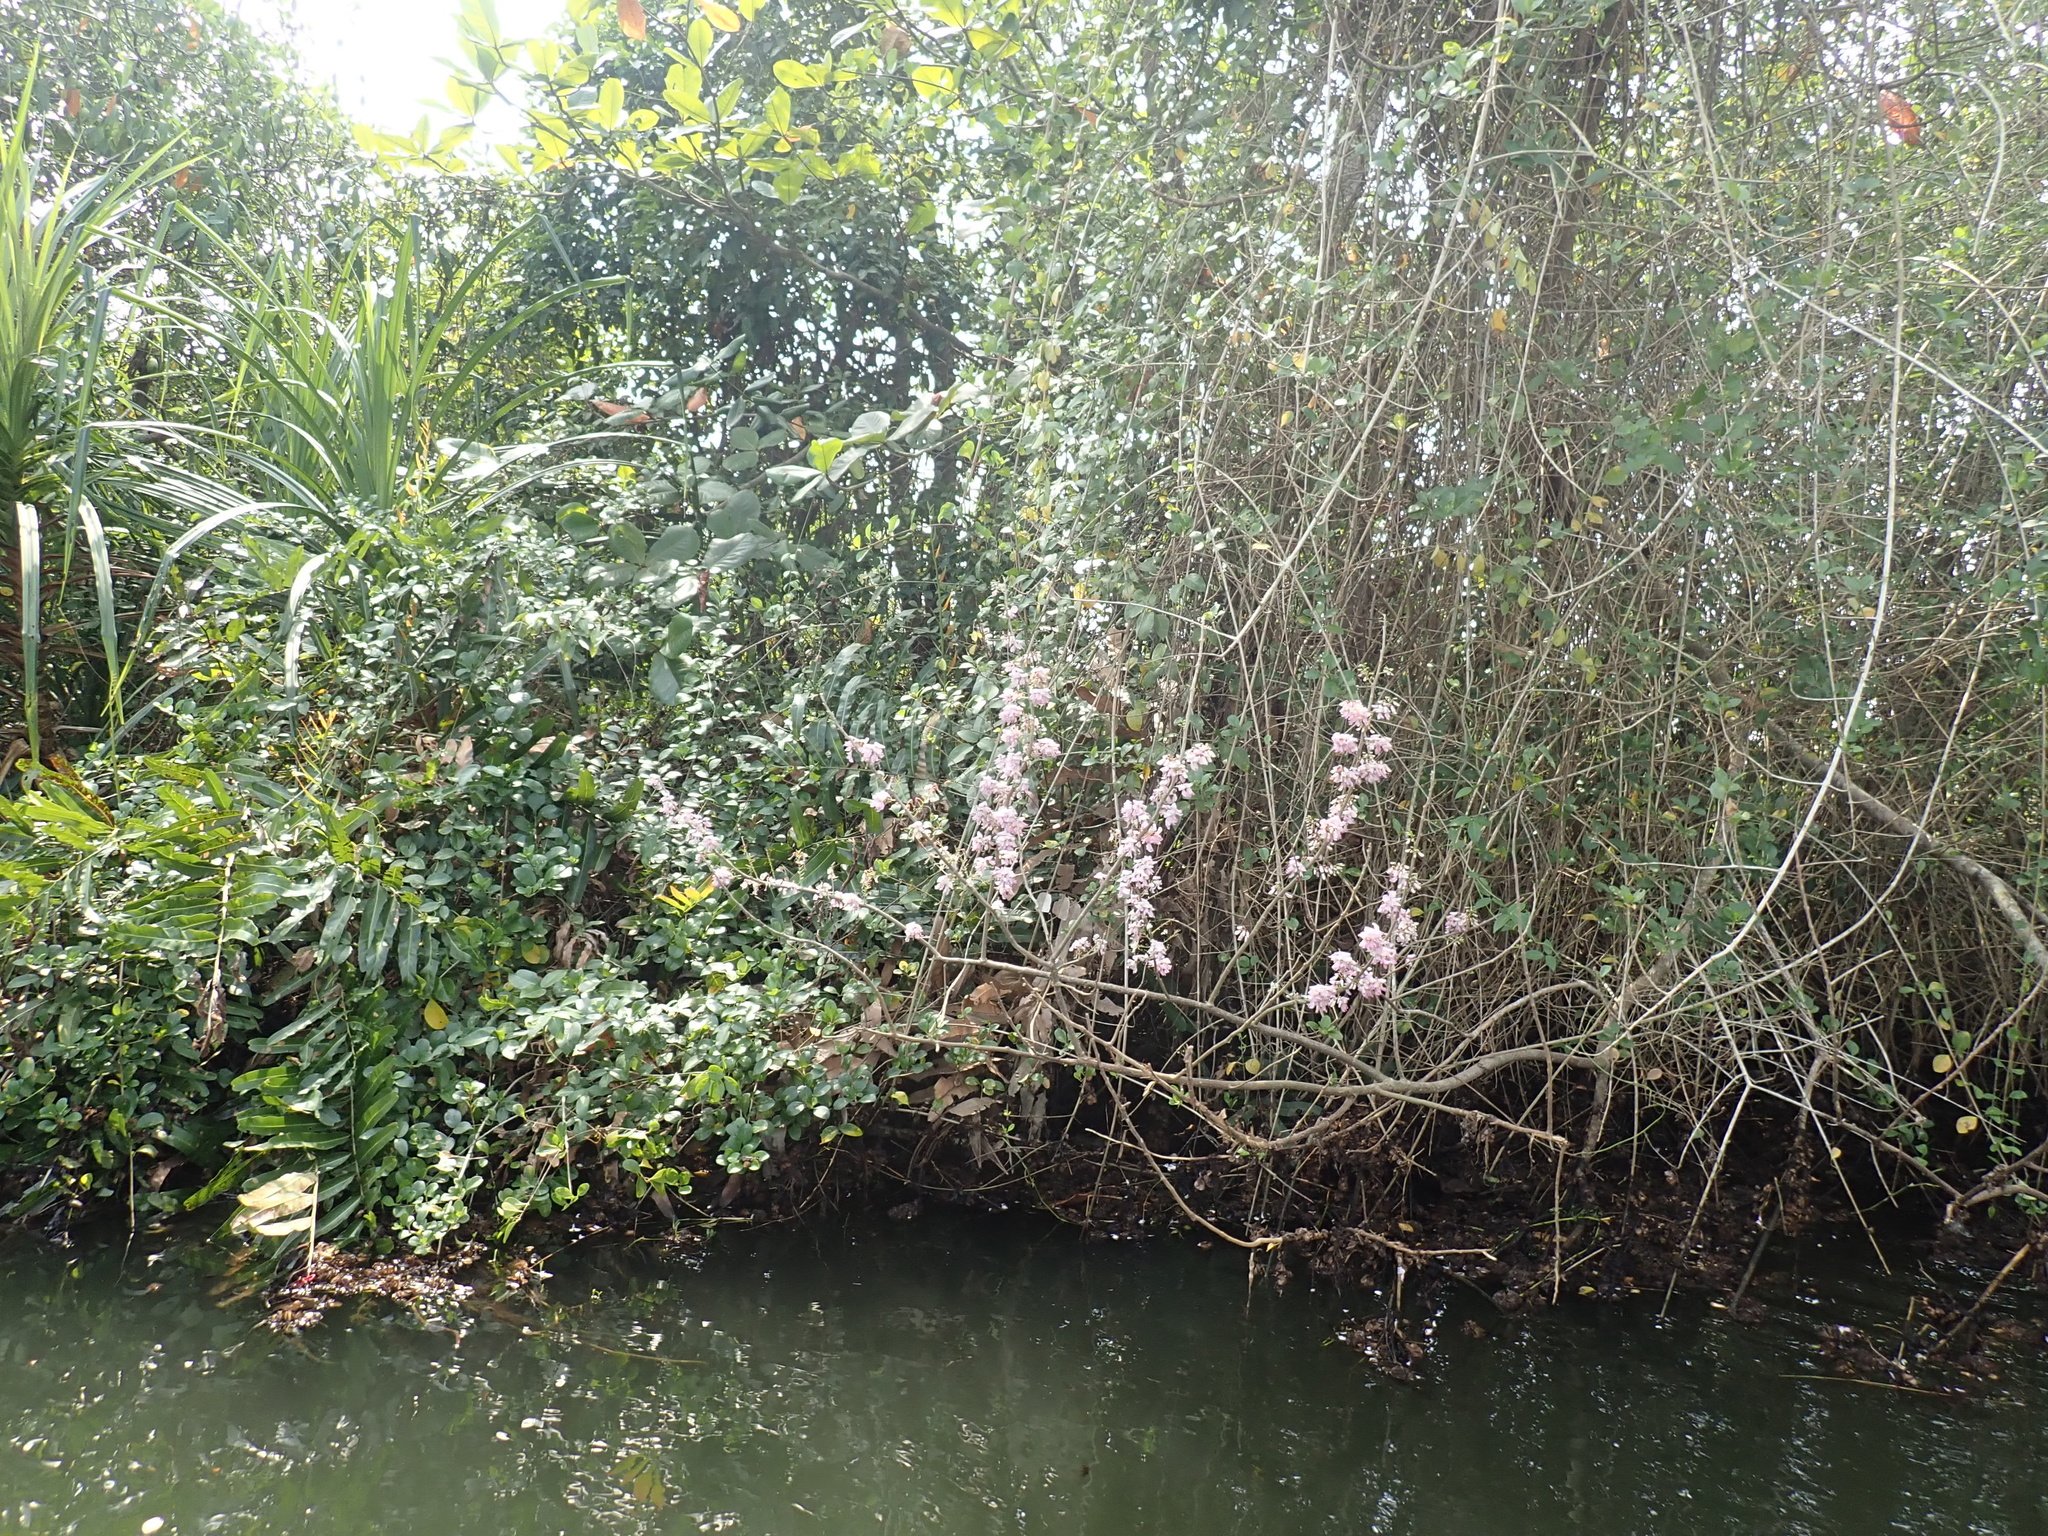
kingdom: Plantae
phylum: Tracheophyta
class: Magnoliopsida
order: Fabales
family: Fabaceae
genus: Gliricidia
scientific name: Gliricidia sepium
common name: Quickstick
